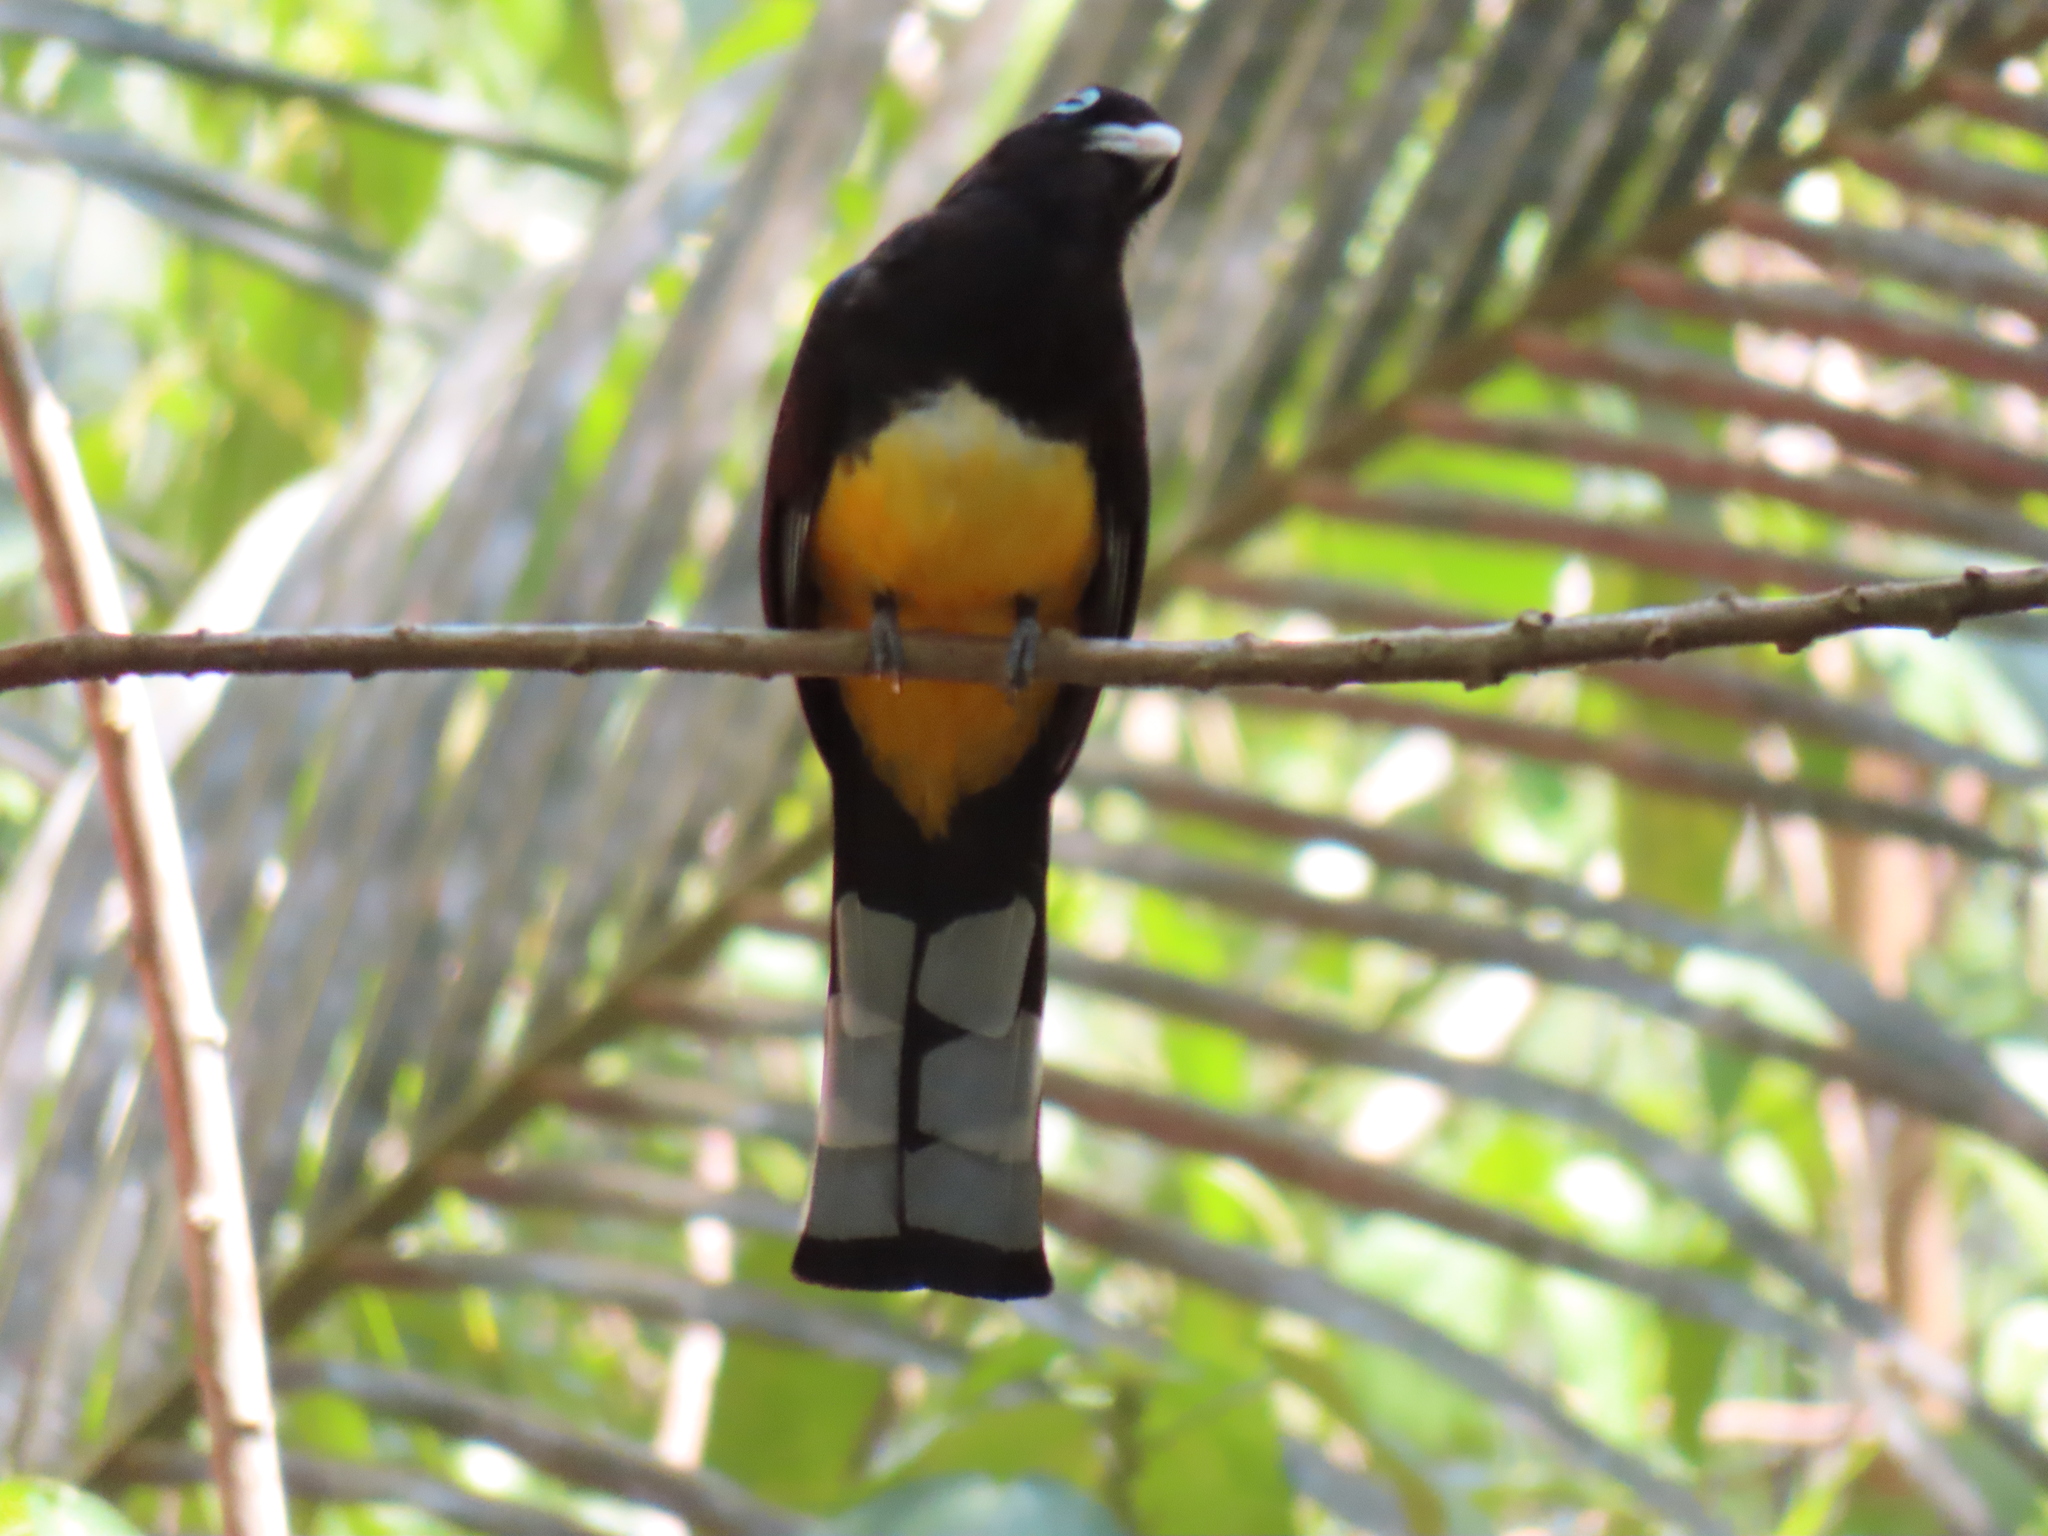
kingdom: Animalia
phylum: Chordata
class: Aves
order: Trogoniformes
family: Trogonidae
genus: Trogon
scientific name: Trogon melanocephalus
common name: Black-headed trogon
